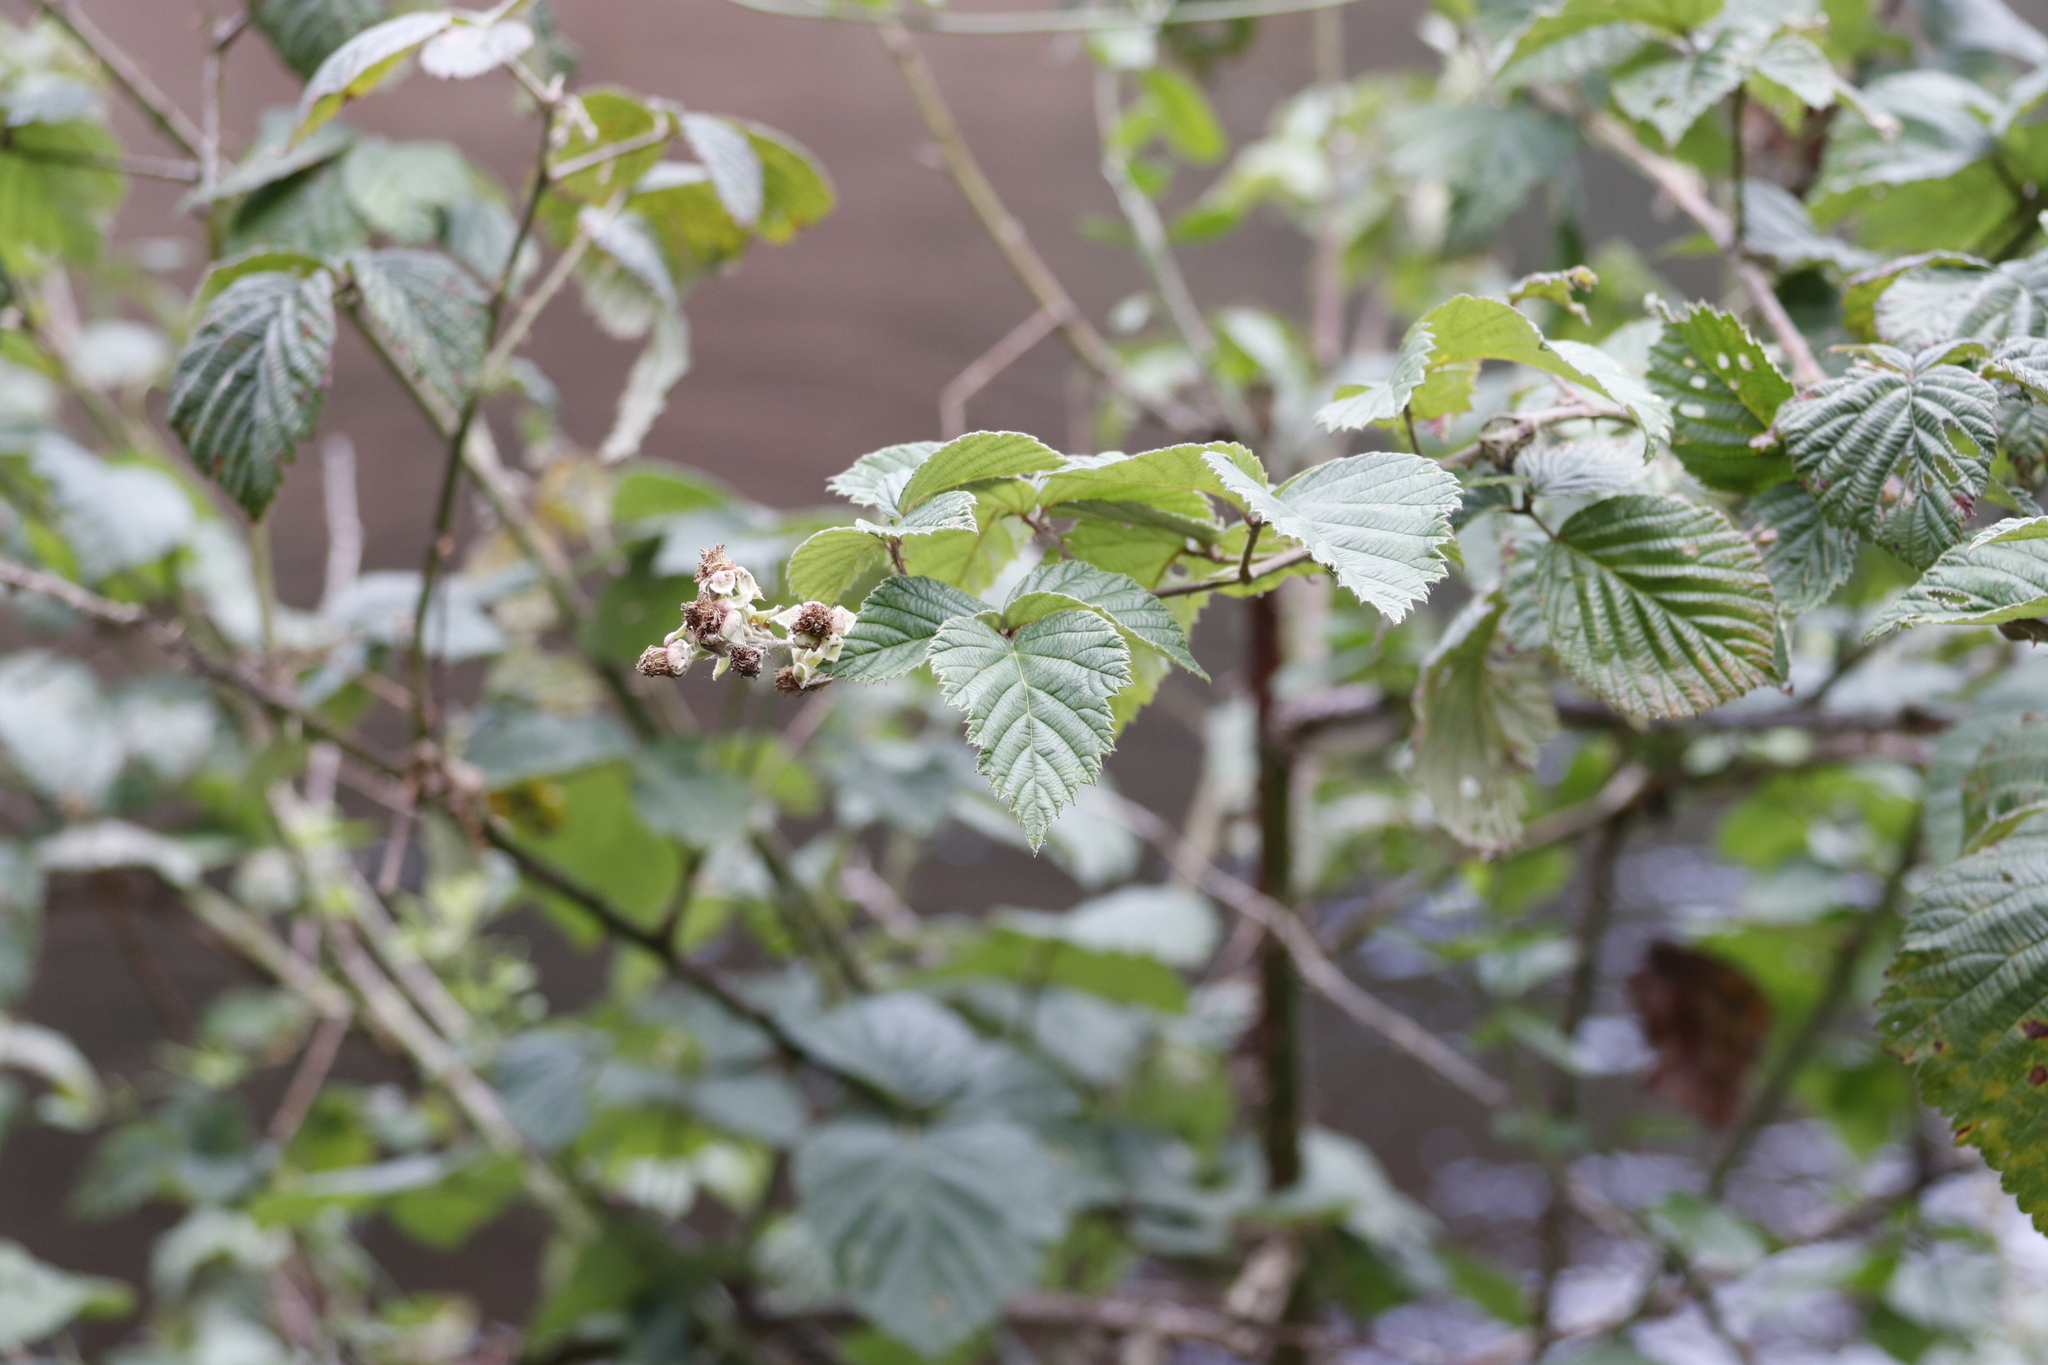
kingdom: Plantae
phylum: Tracheophyta
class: Magnoliopsida
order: Rosales
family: Rosaceae
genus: Rubus
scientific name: Rubus rigidus
